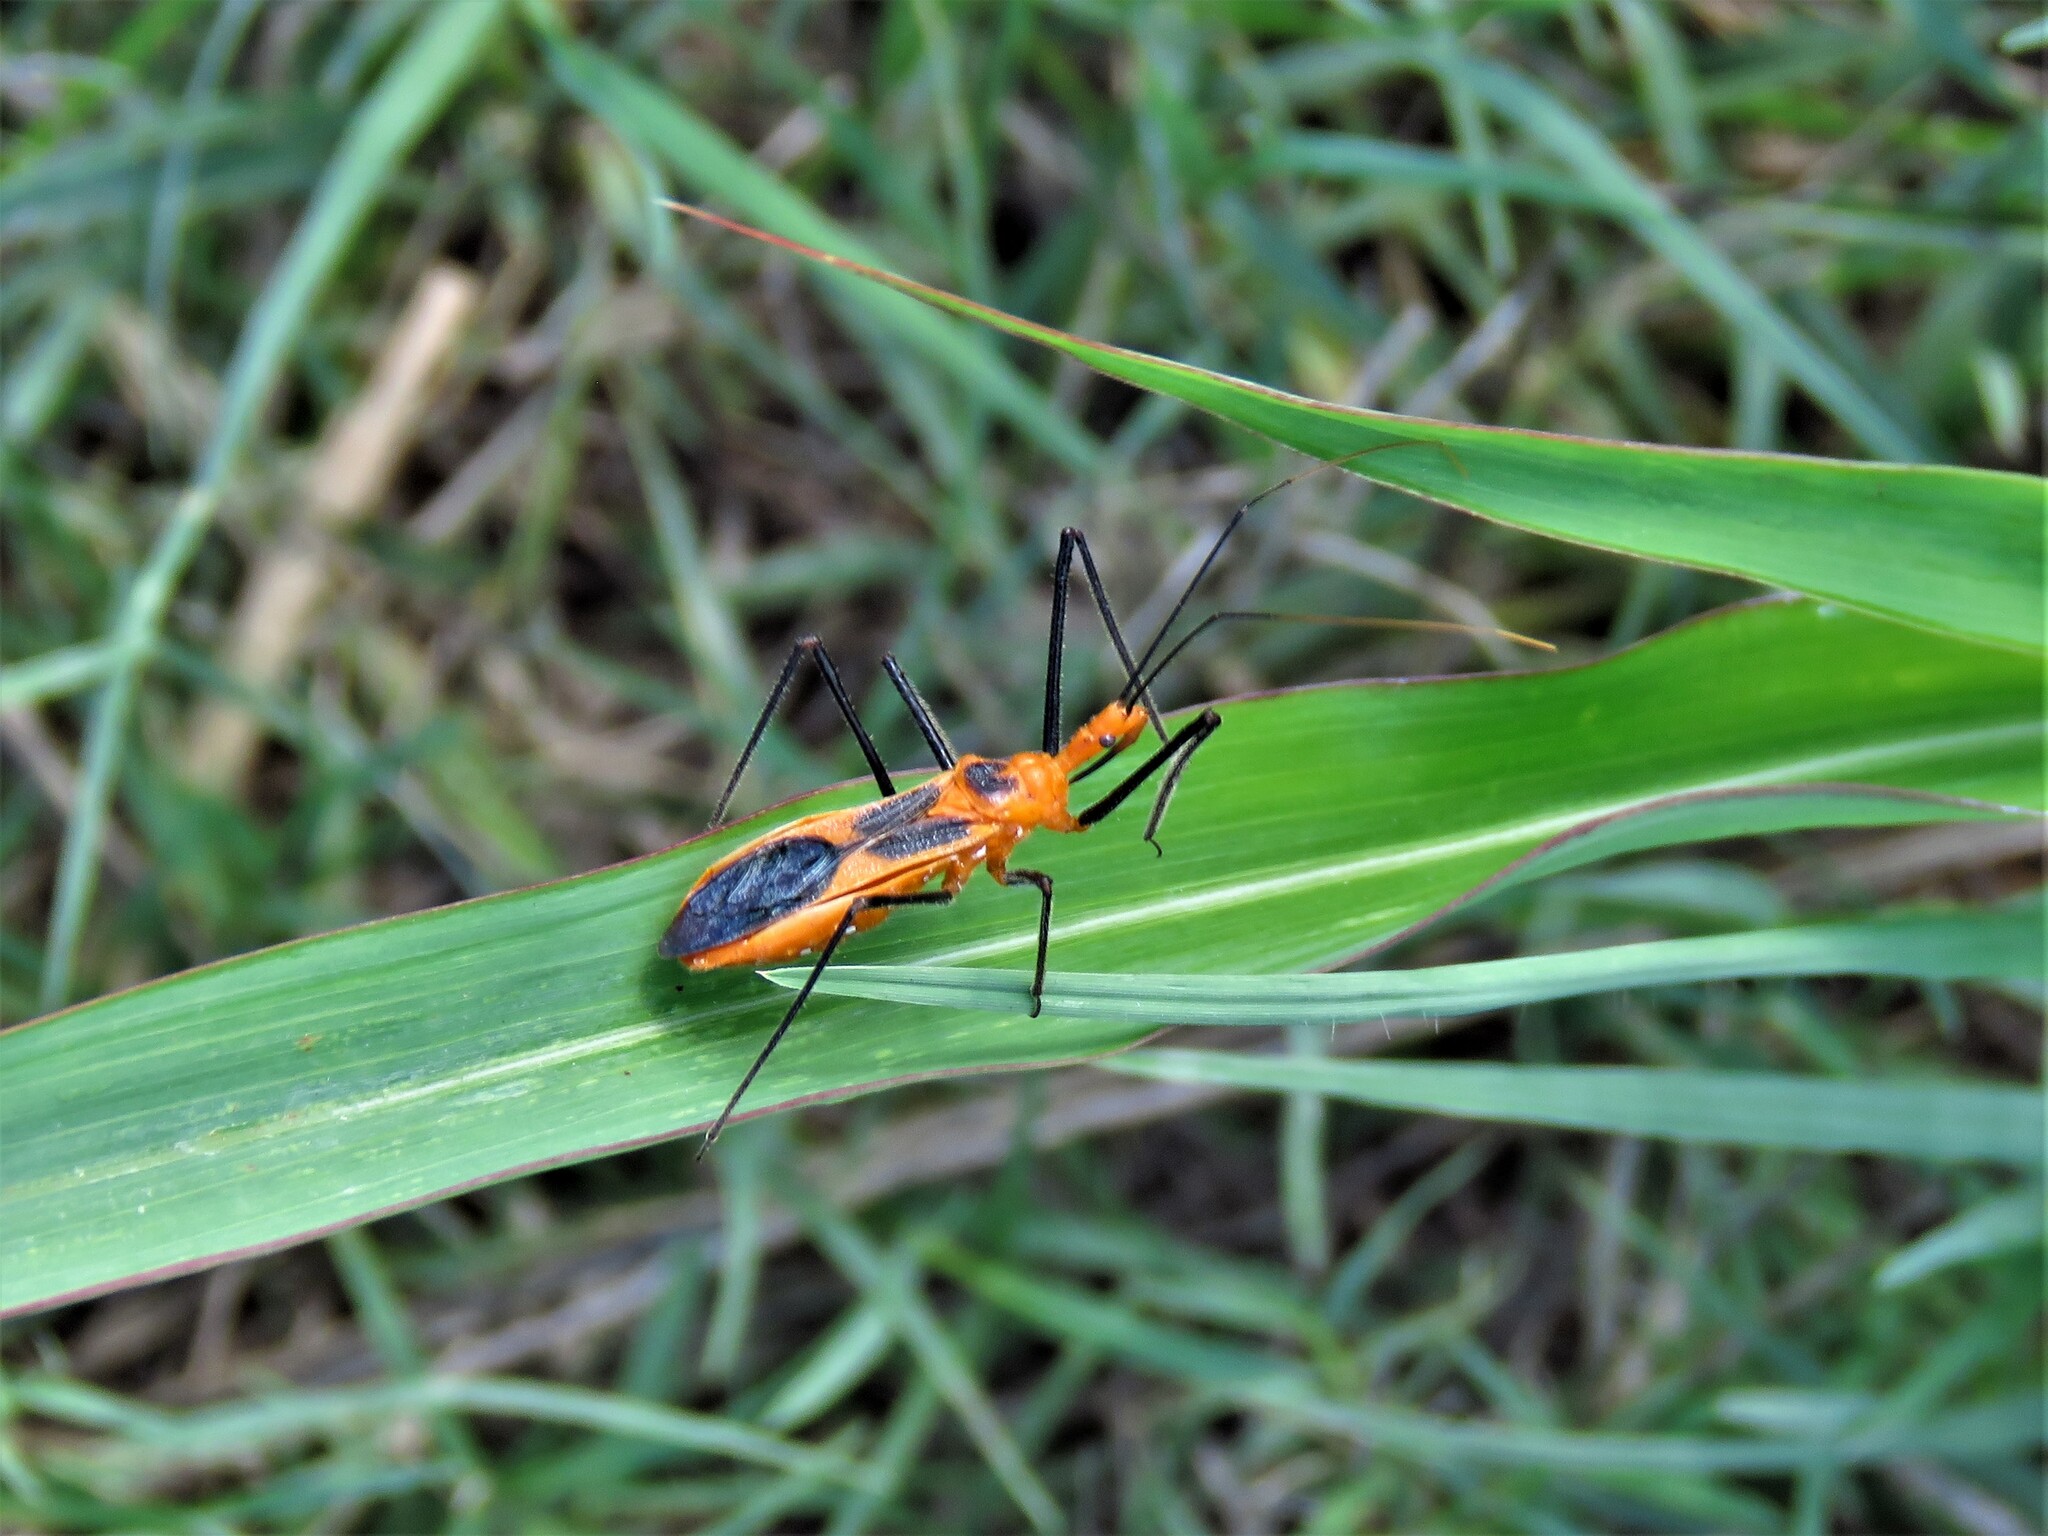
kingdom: Animalia
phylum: Arthropoda
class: Insecta
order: Hemiptera
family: Reduviidae
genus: Zelus
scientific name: Zelus longipes
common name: Milkweed assassin bug
